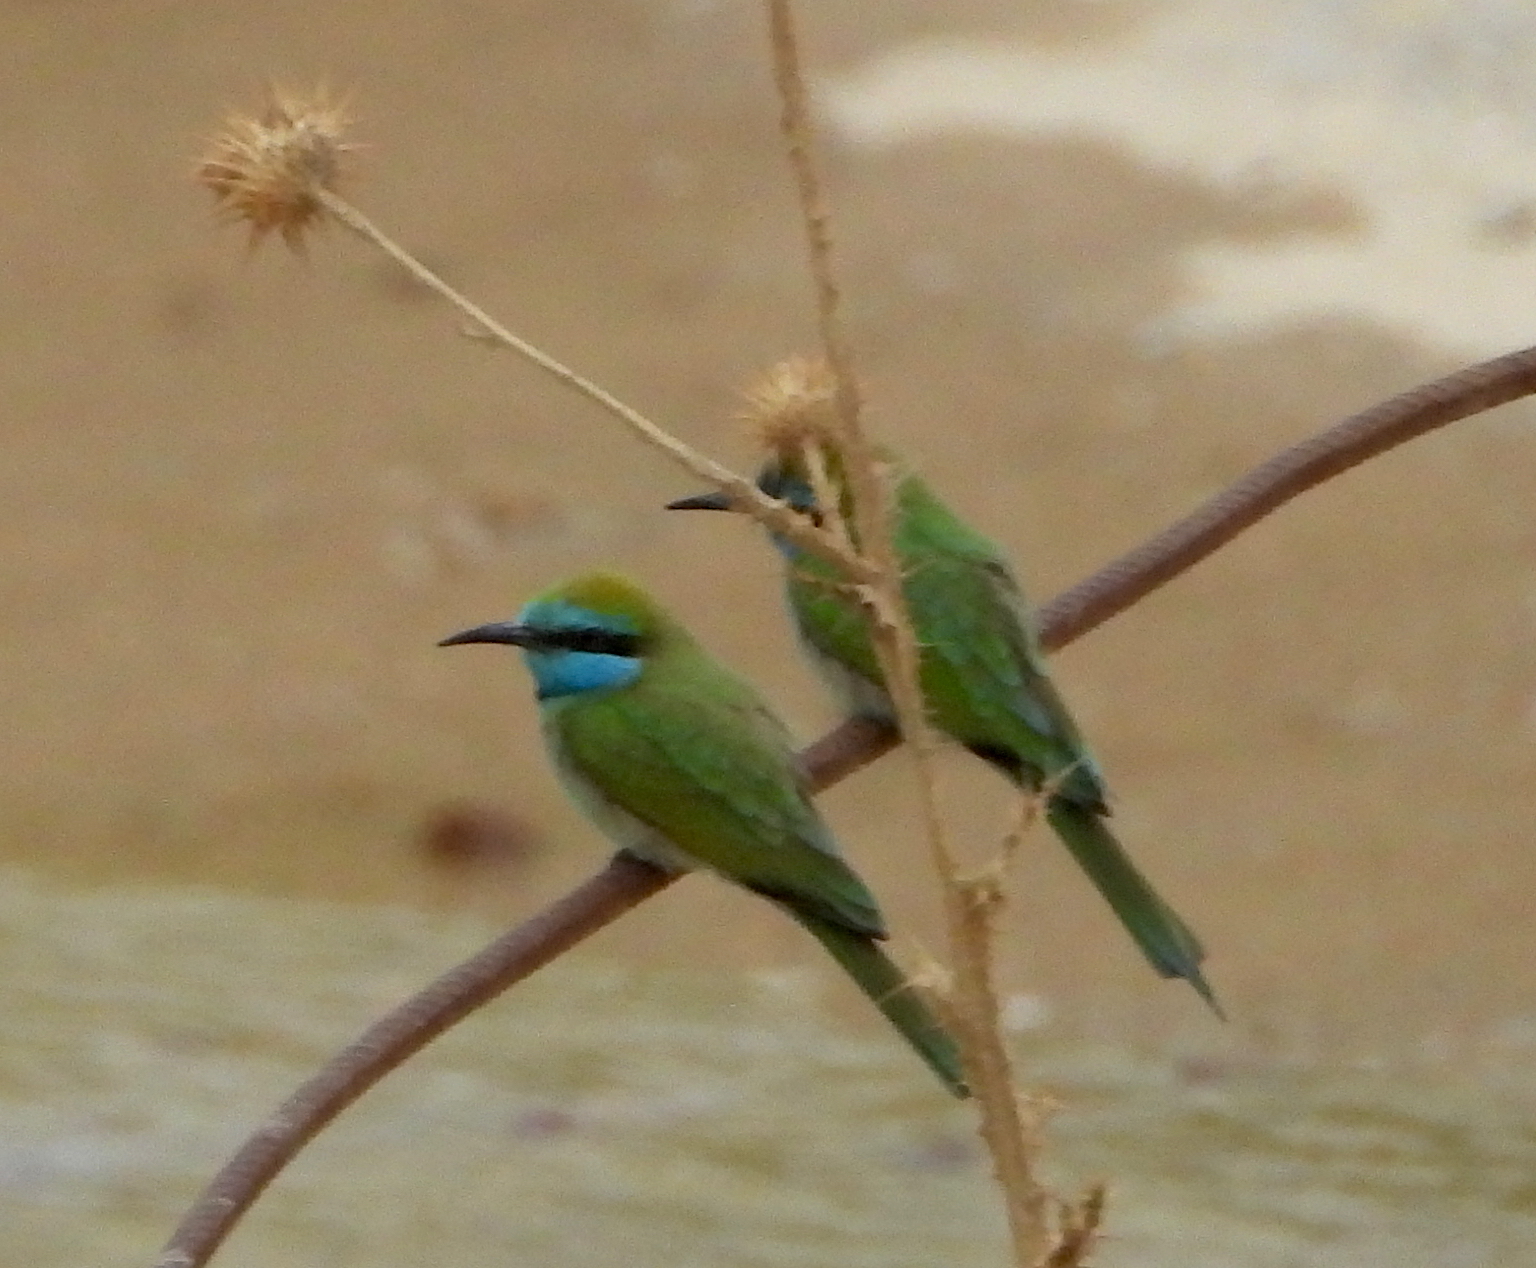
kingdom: Animalia
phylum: Chordata
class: Aves
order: Coraciiformes
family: Meropidae
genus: Merops
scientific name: Merops cyanophrys
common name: Arabian green bee-eater
